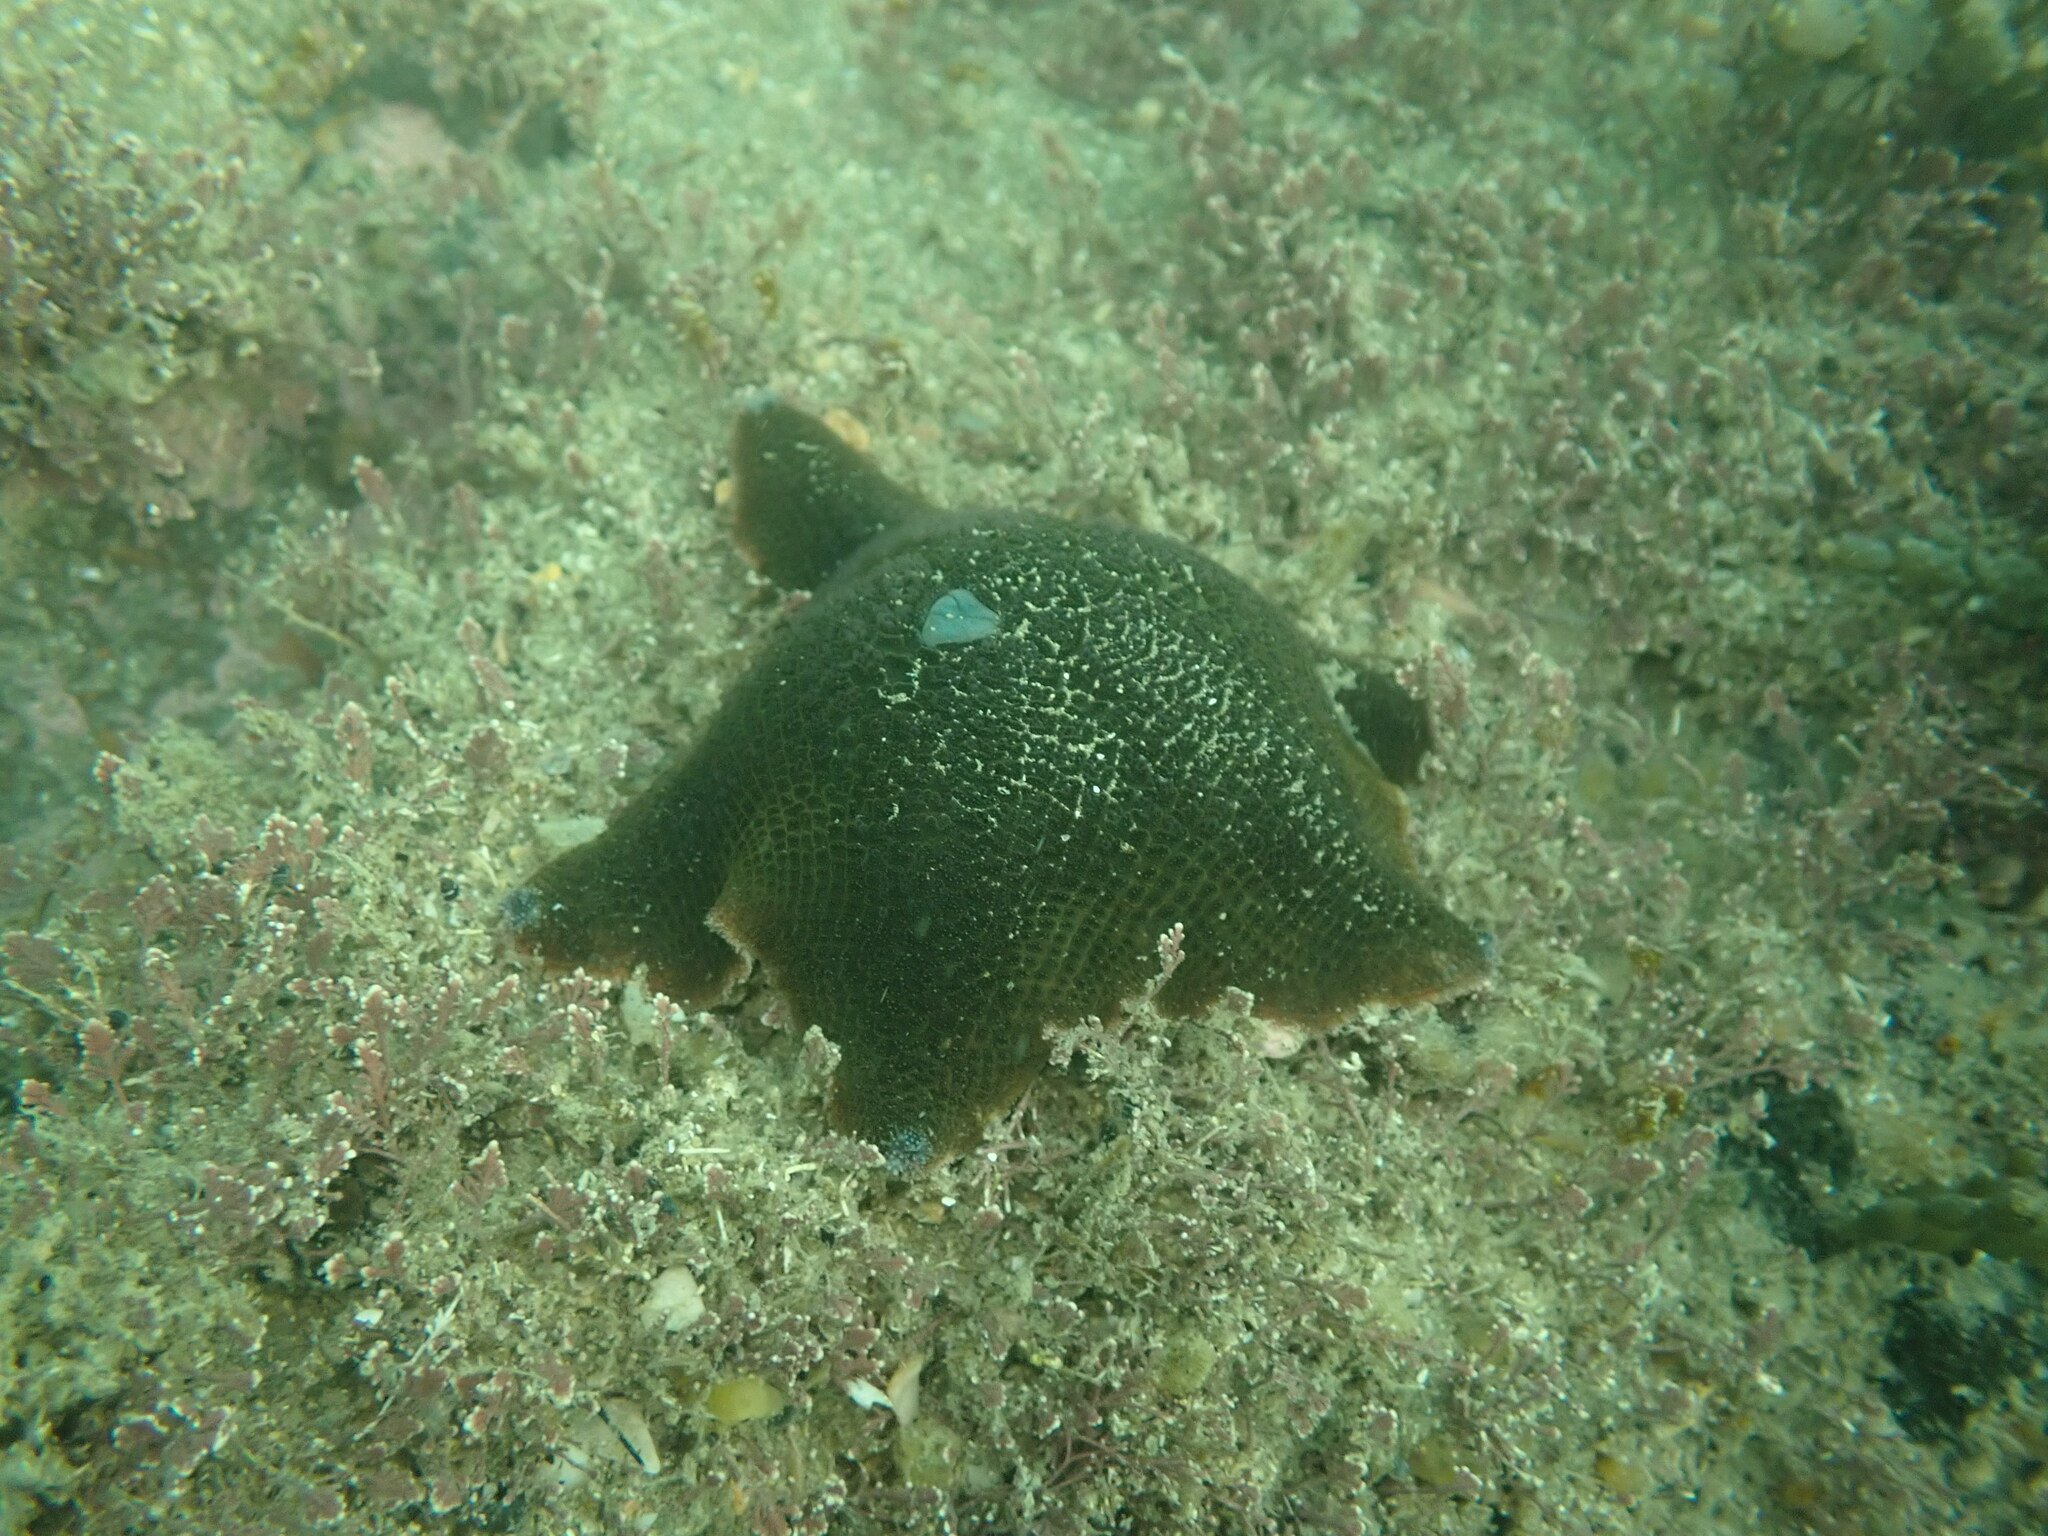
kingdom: Animalia
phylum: Echinodermata
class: Asteroidea
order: Valvatida
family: Asterinidae
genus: Patiriella
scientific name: Patiriella regularis
